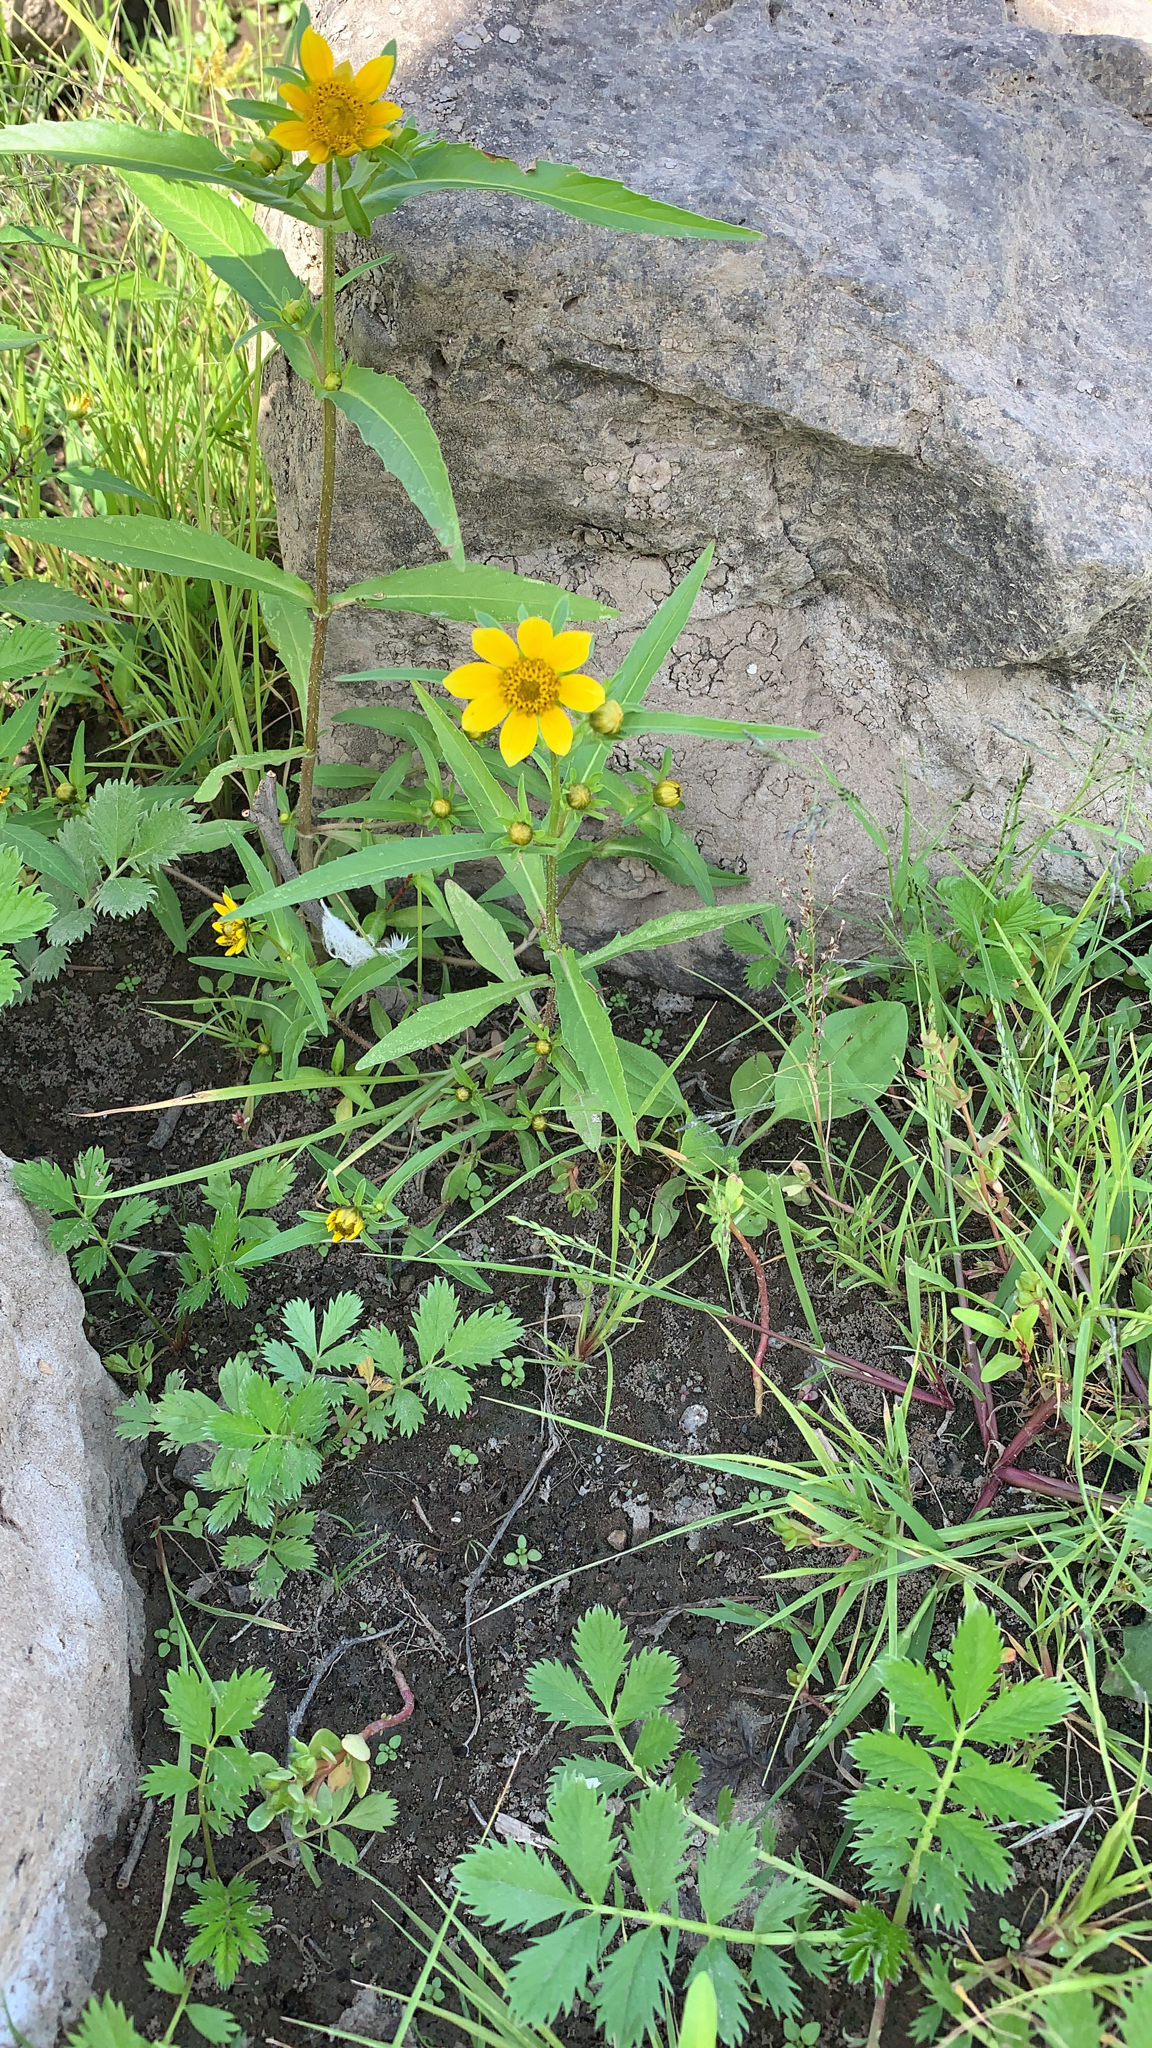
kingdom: Plantae
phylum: Tracheophyta
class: Magnoliopsida
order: Asterales
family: Asteraceae
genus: Bidens
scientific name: Bidens cernua
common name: Nodding bur-marigold
